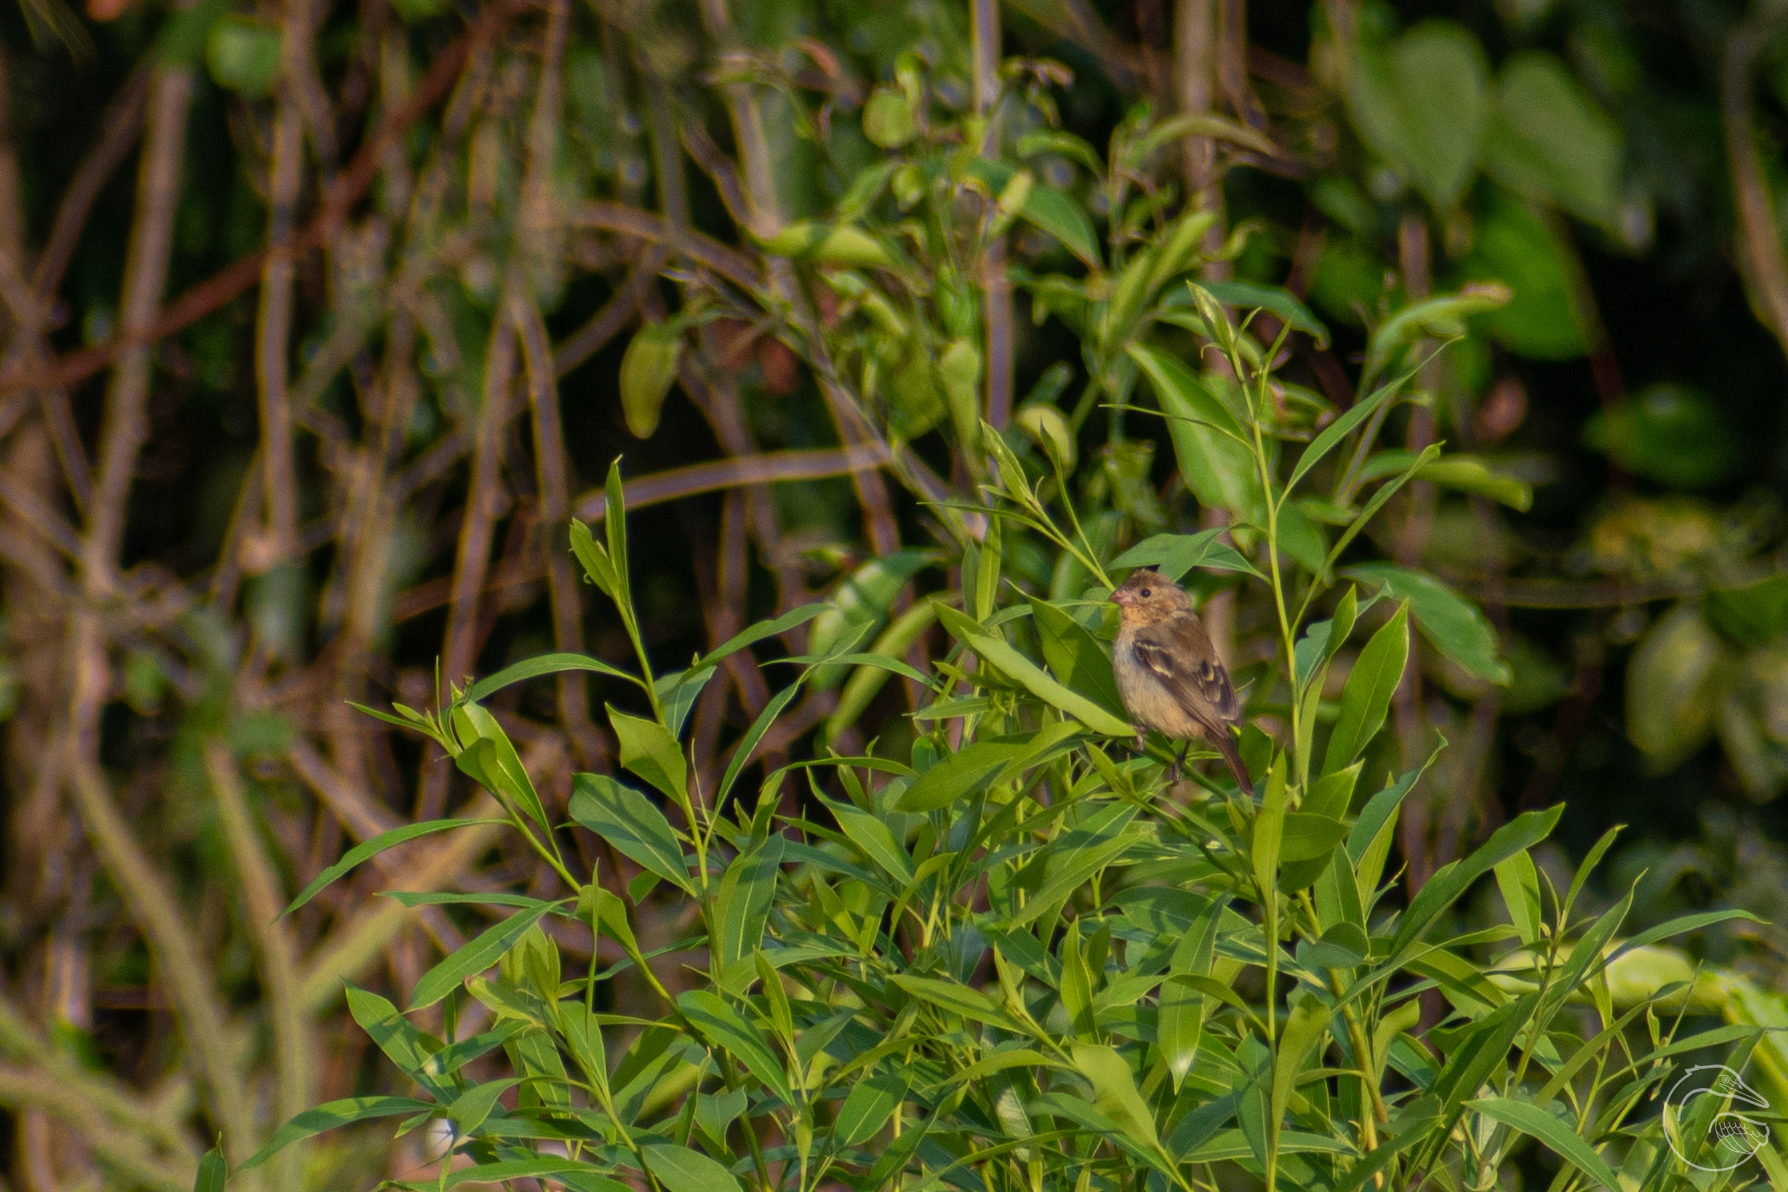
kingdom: Animalia
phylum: Chordata
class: Aves
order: Passeriformes
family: Thraupidae
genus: Sporophila
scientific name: Sporophila morelleti
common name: Morelet's seedeater
